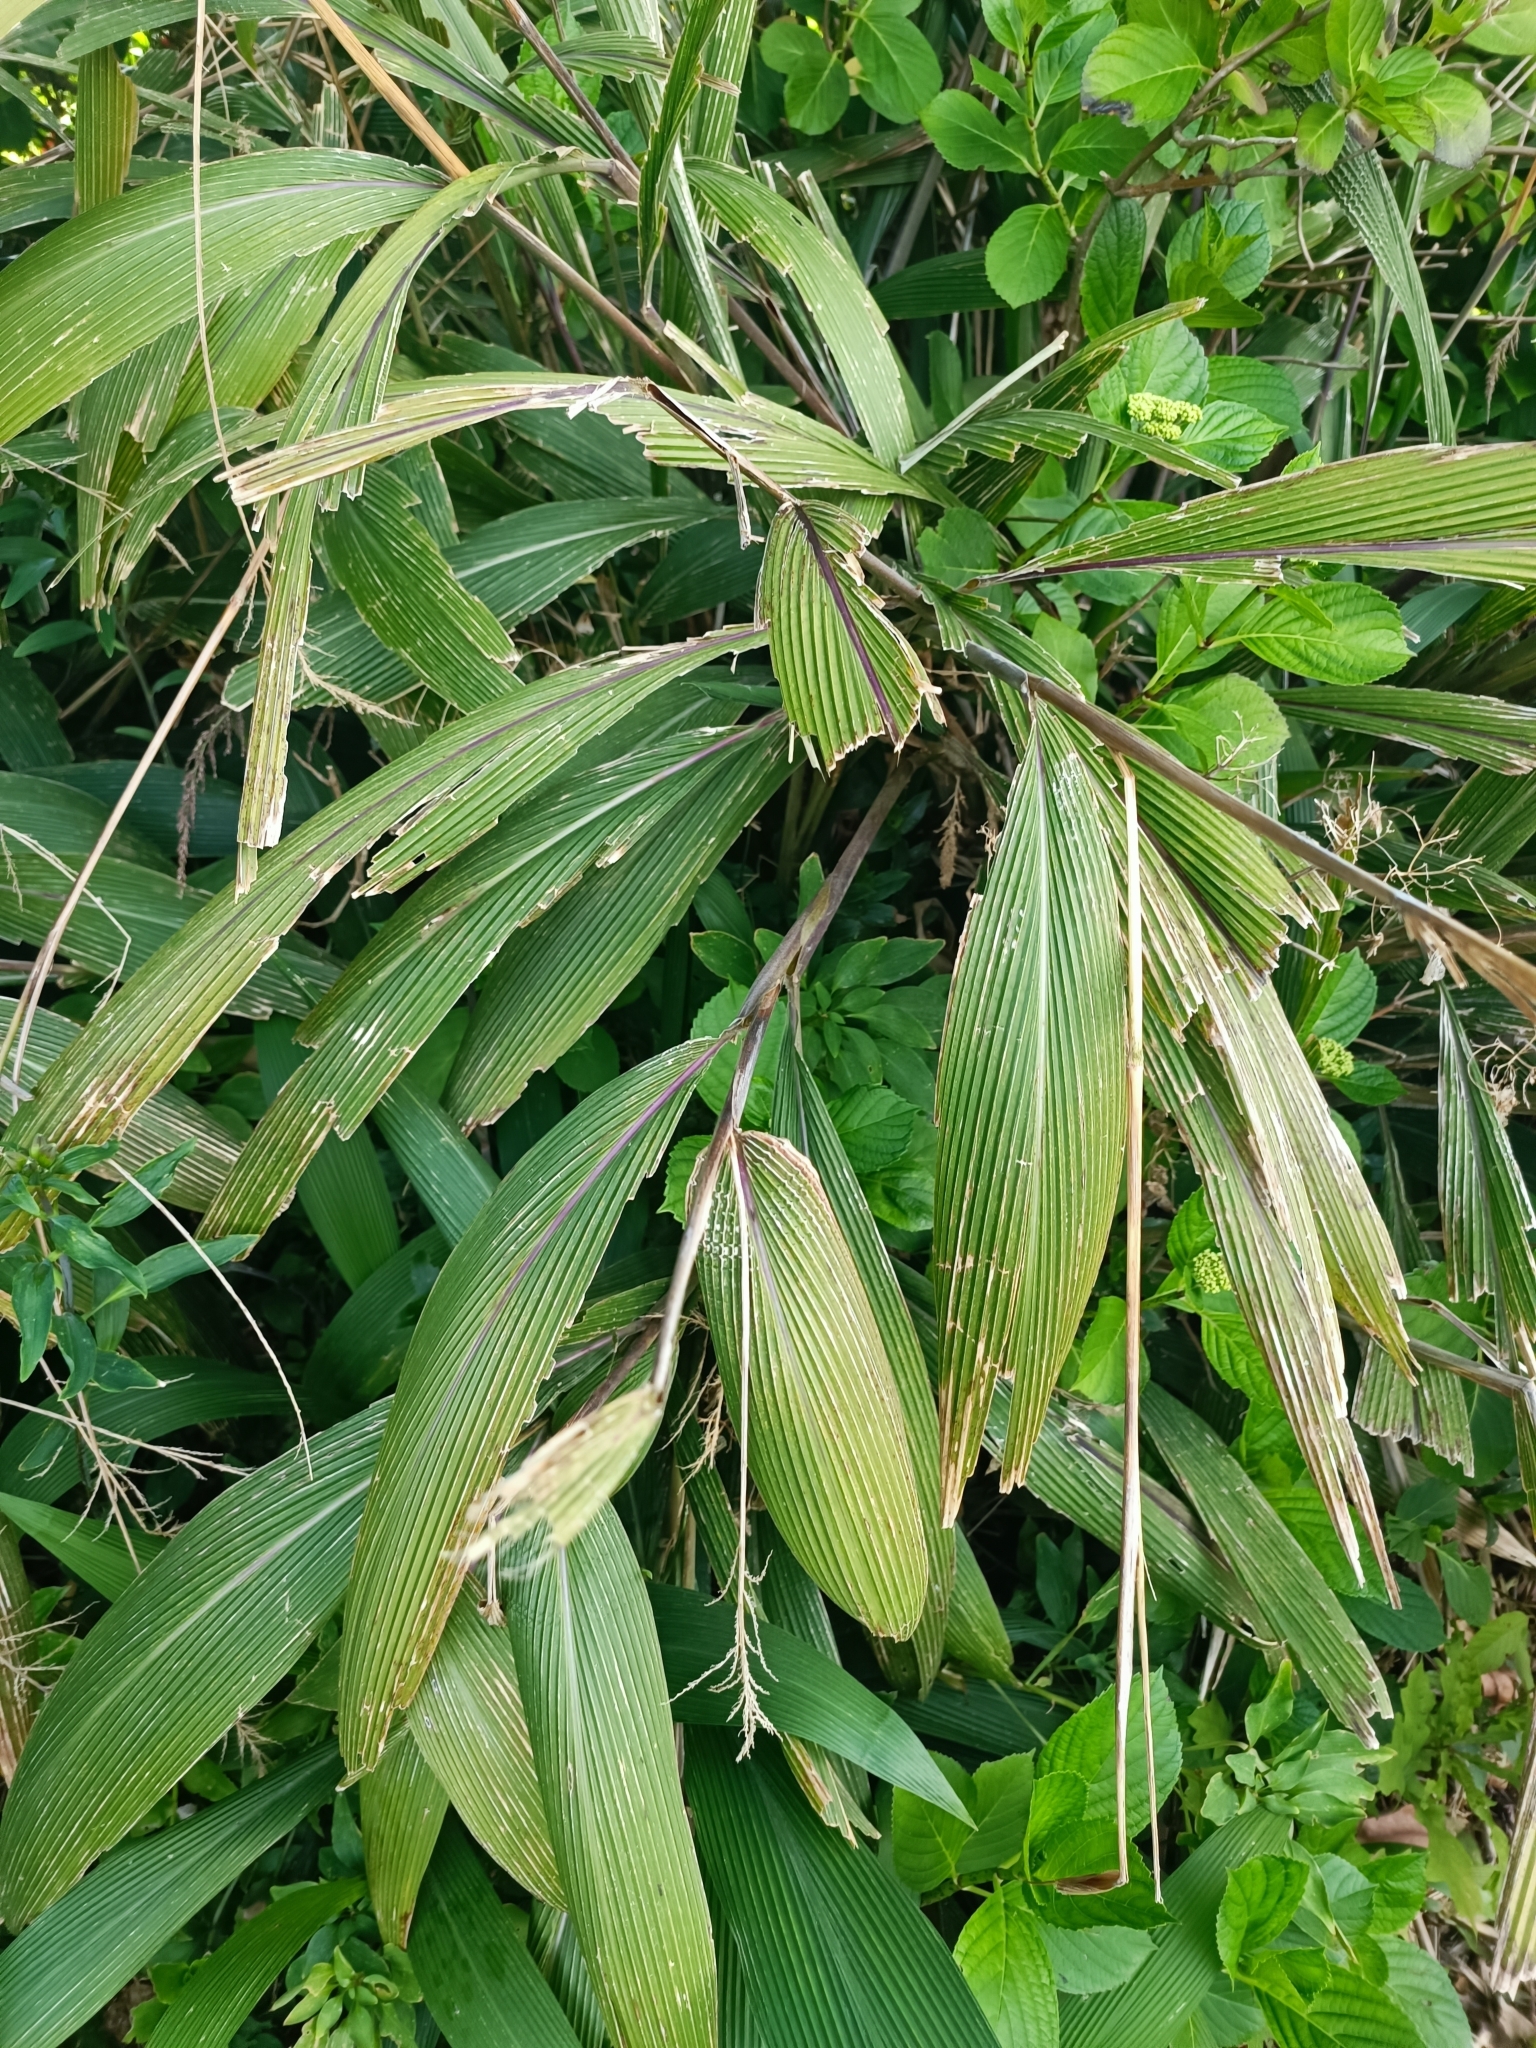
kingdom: Plantae
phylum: Tracheophyta
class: Liliopsida
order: Poales
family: Poaceae
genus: Setaria
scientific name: Setaria palmifolia
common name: Broadleaved bristlegrass
